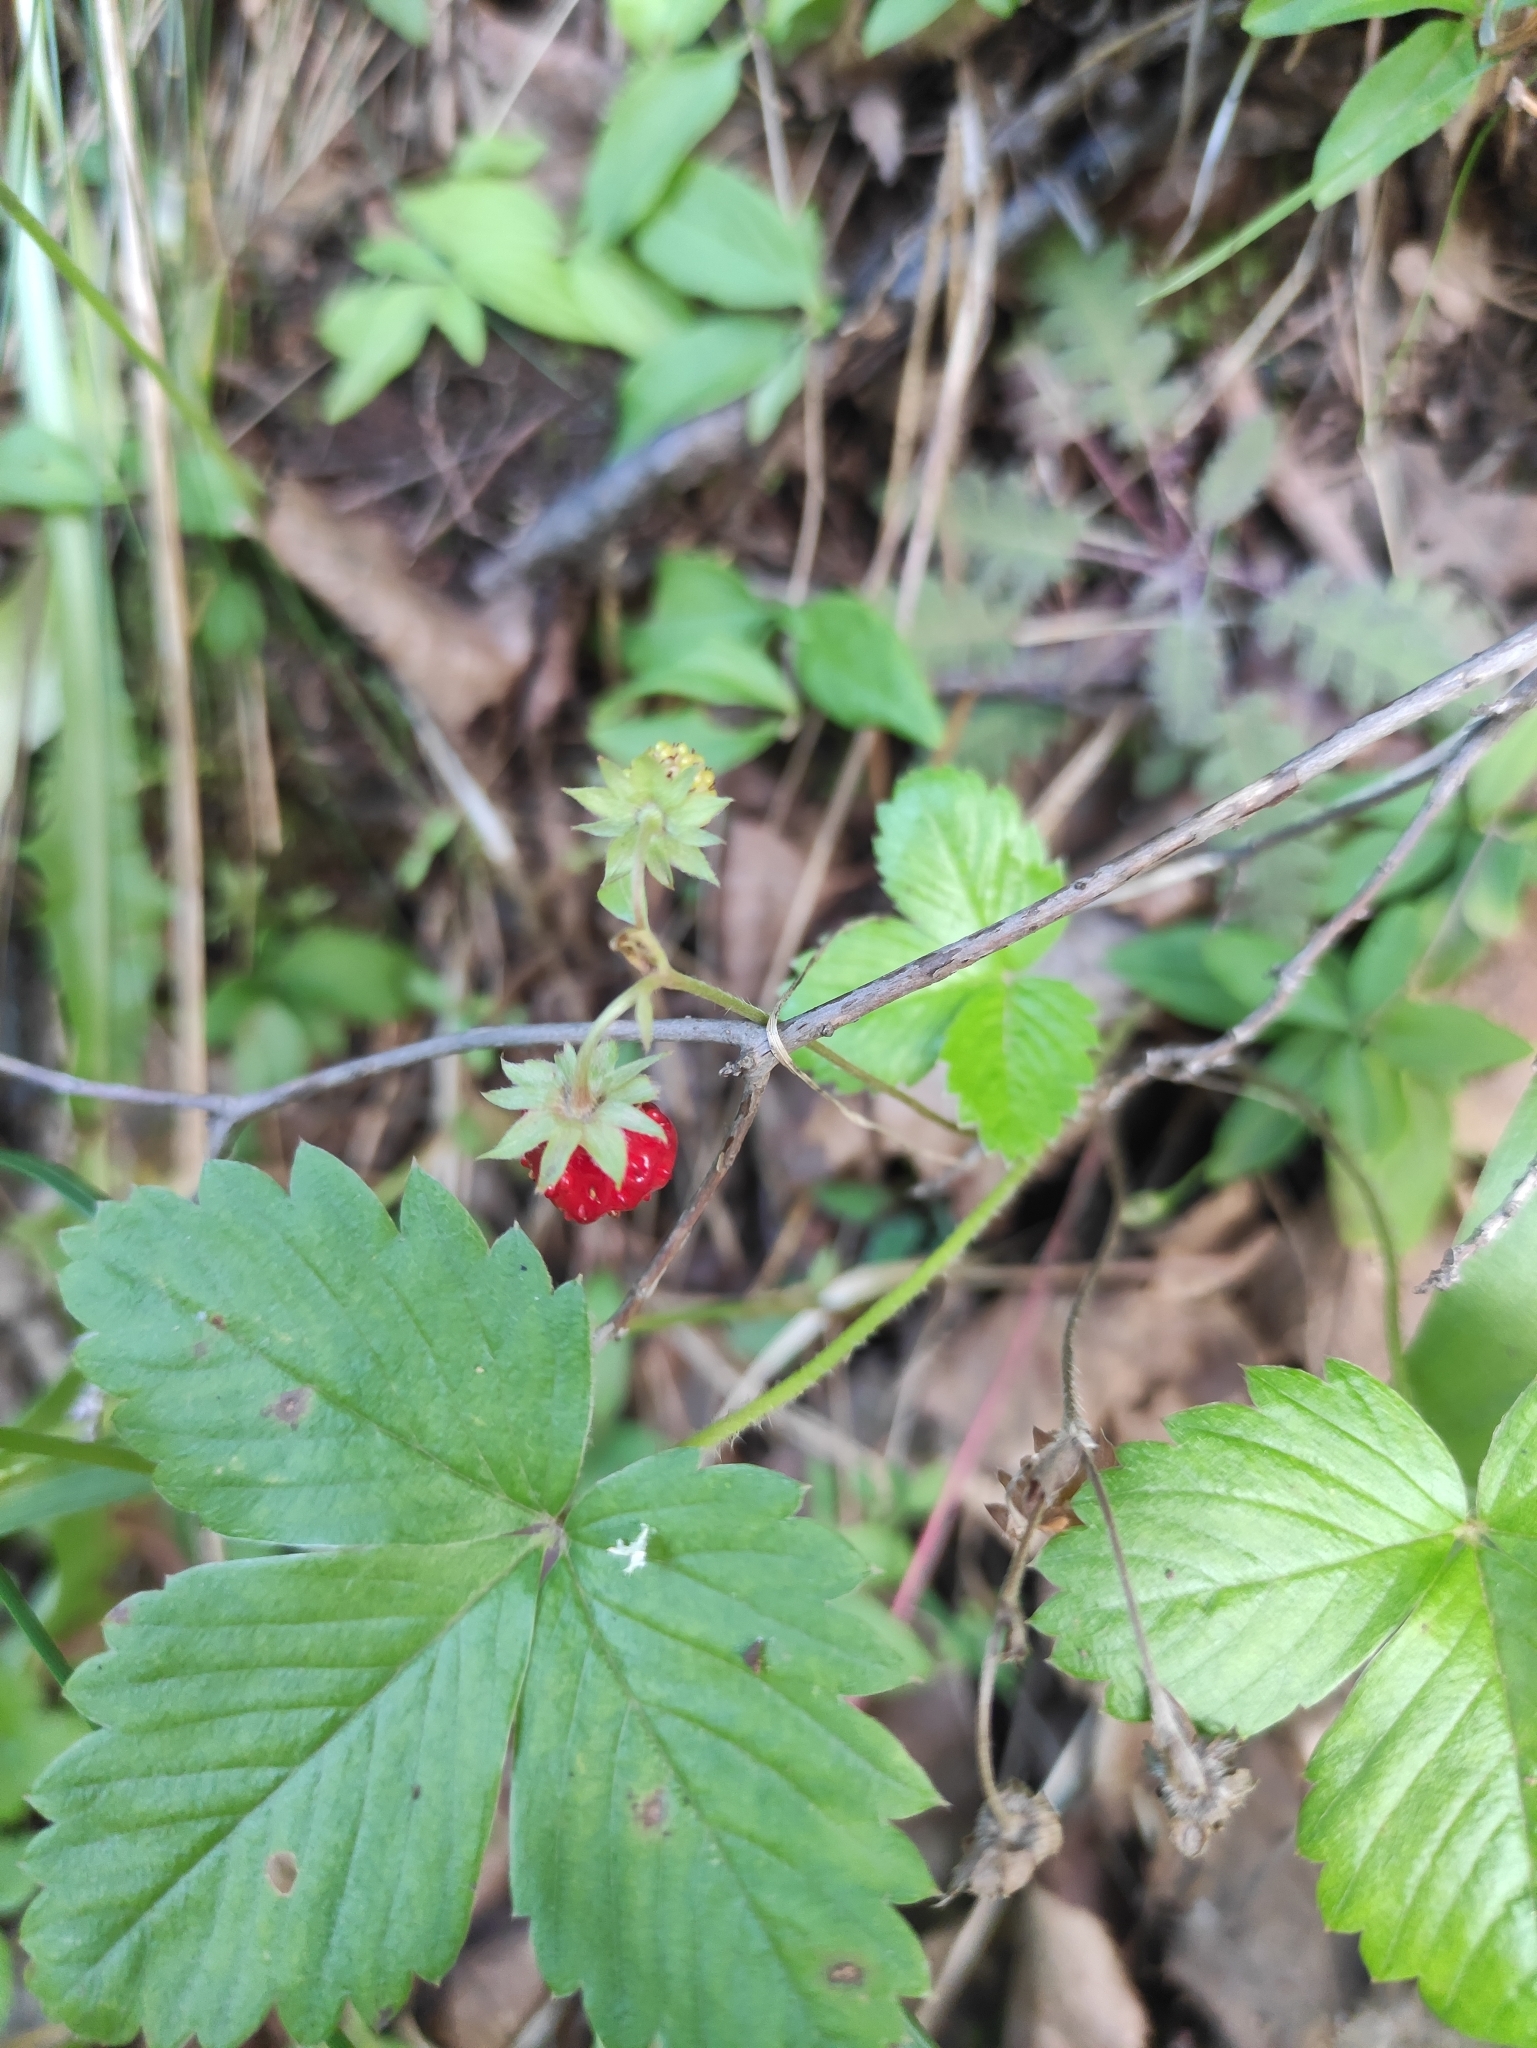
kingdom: Plantae
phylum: Tracheophyta
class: Magnoliopsida
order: Rosales
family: Rosaceae
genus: Fragaria
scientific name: Fragaria vesca
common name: Wild strawberry
